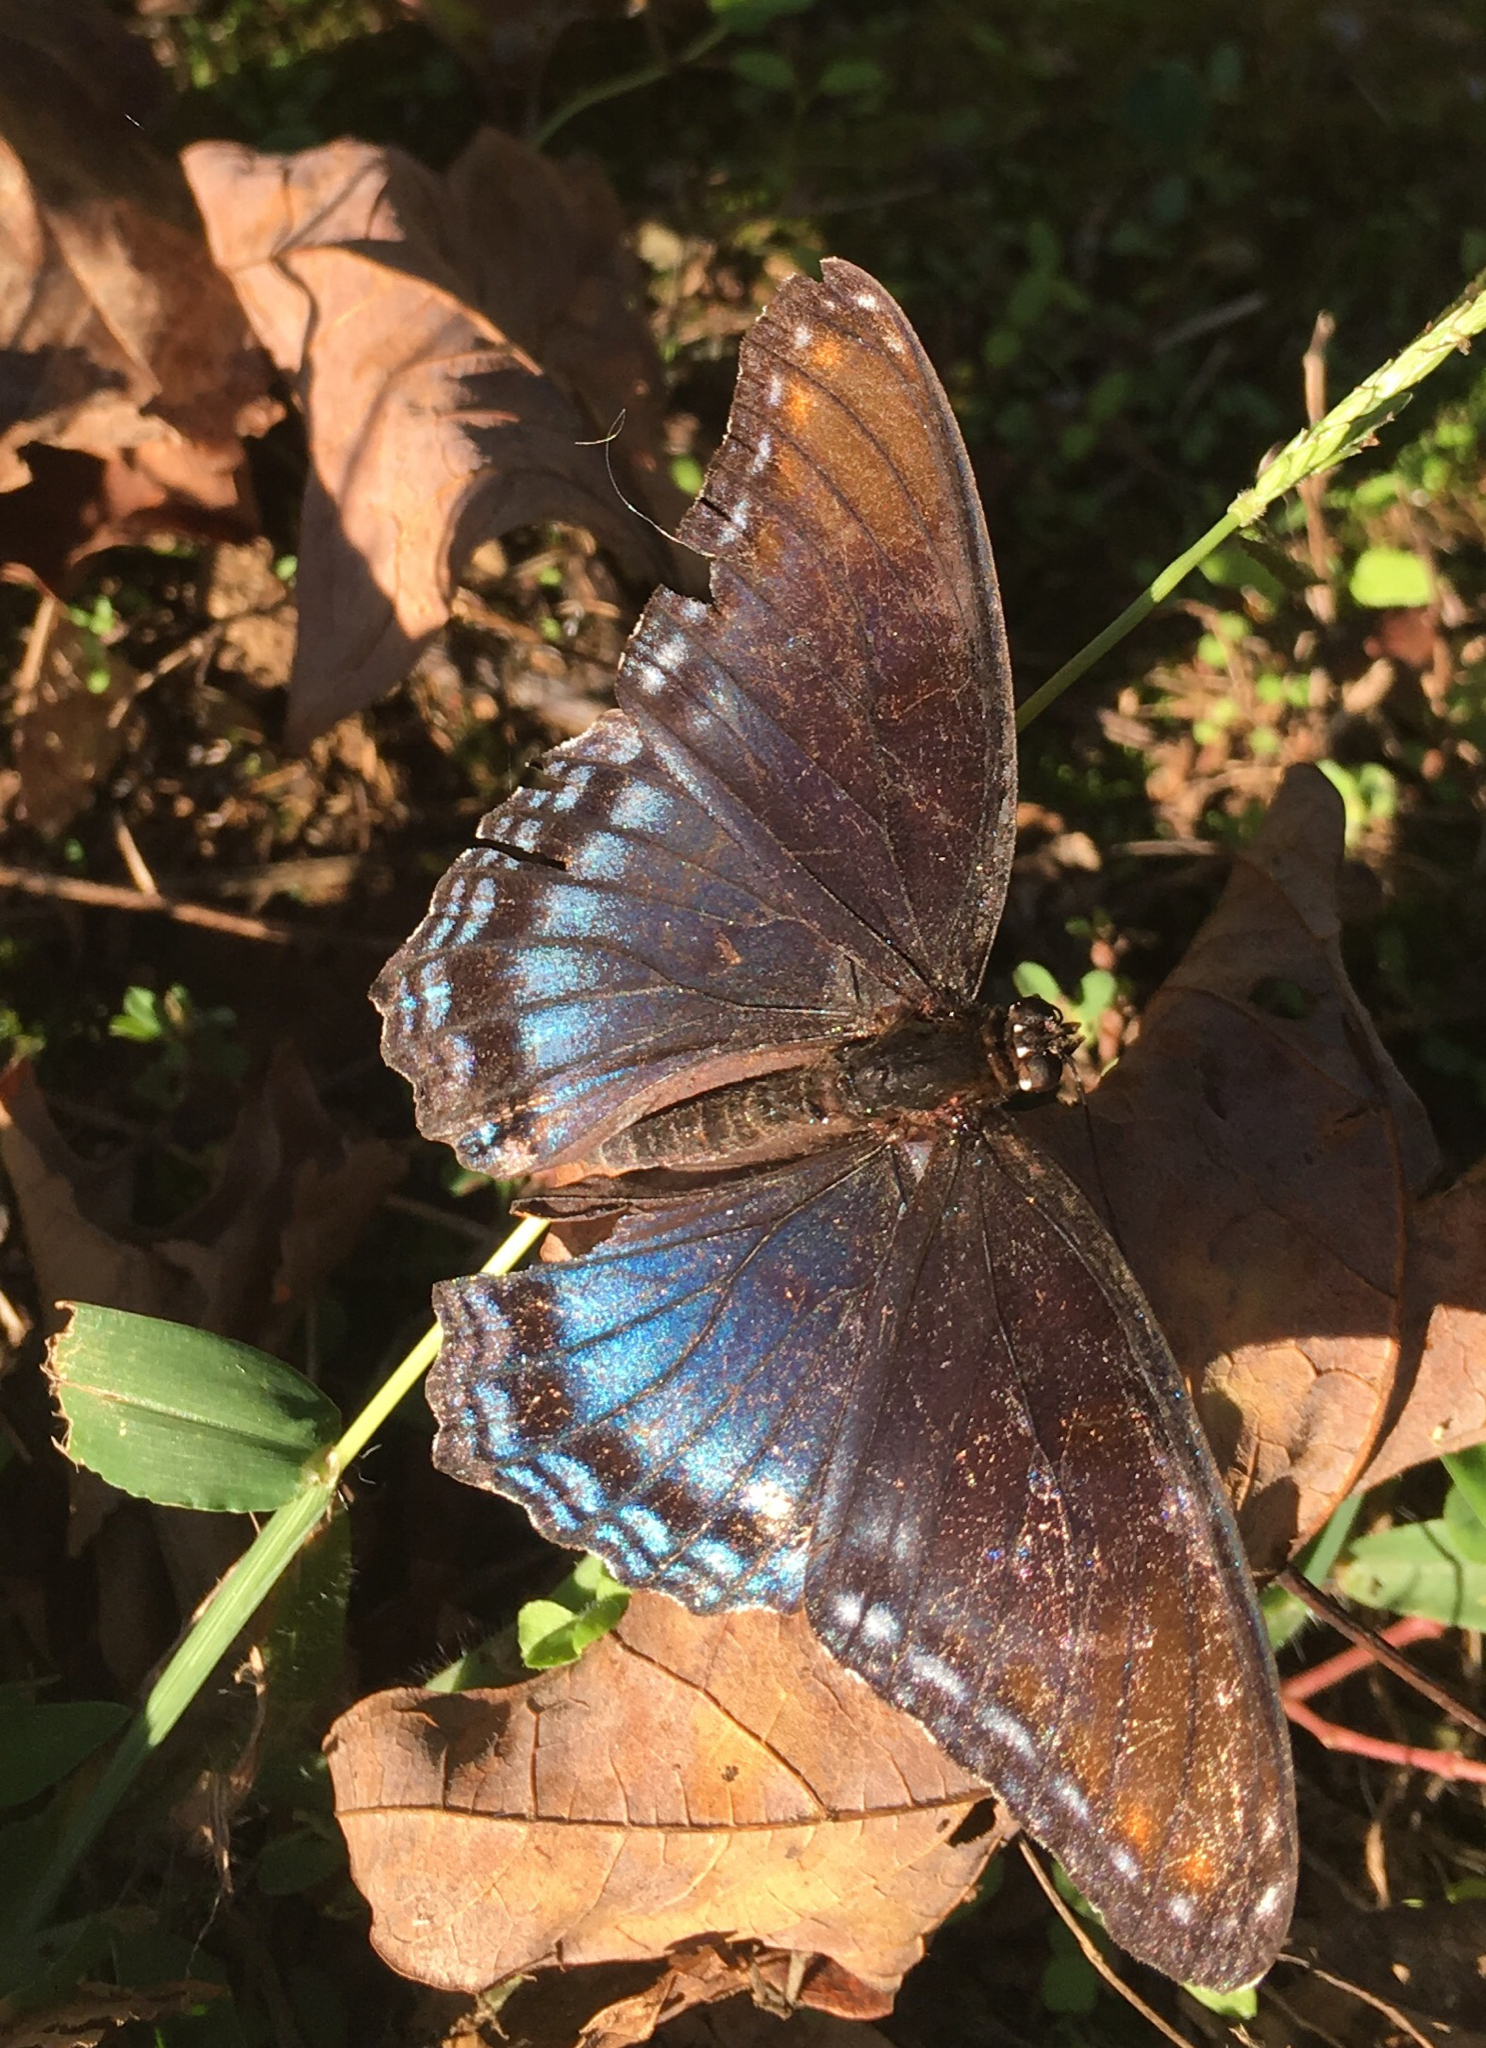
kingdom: Animalia
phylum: Arthropoda
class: Insecta
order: Lepidoptera
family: Nymphalidae
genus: Limenitis
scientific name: Limenitis arthemis
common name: Red-spotted admiral
